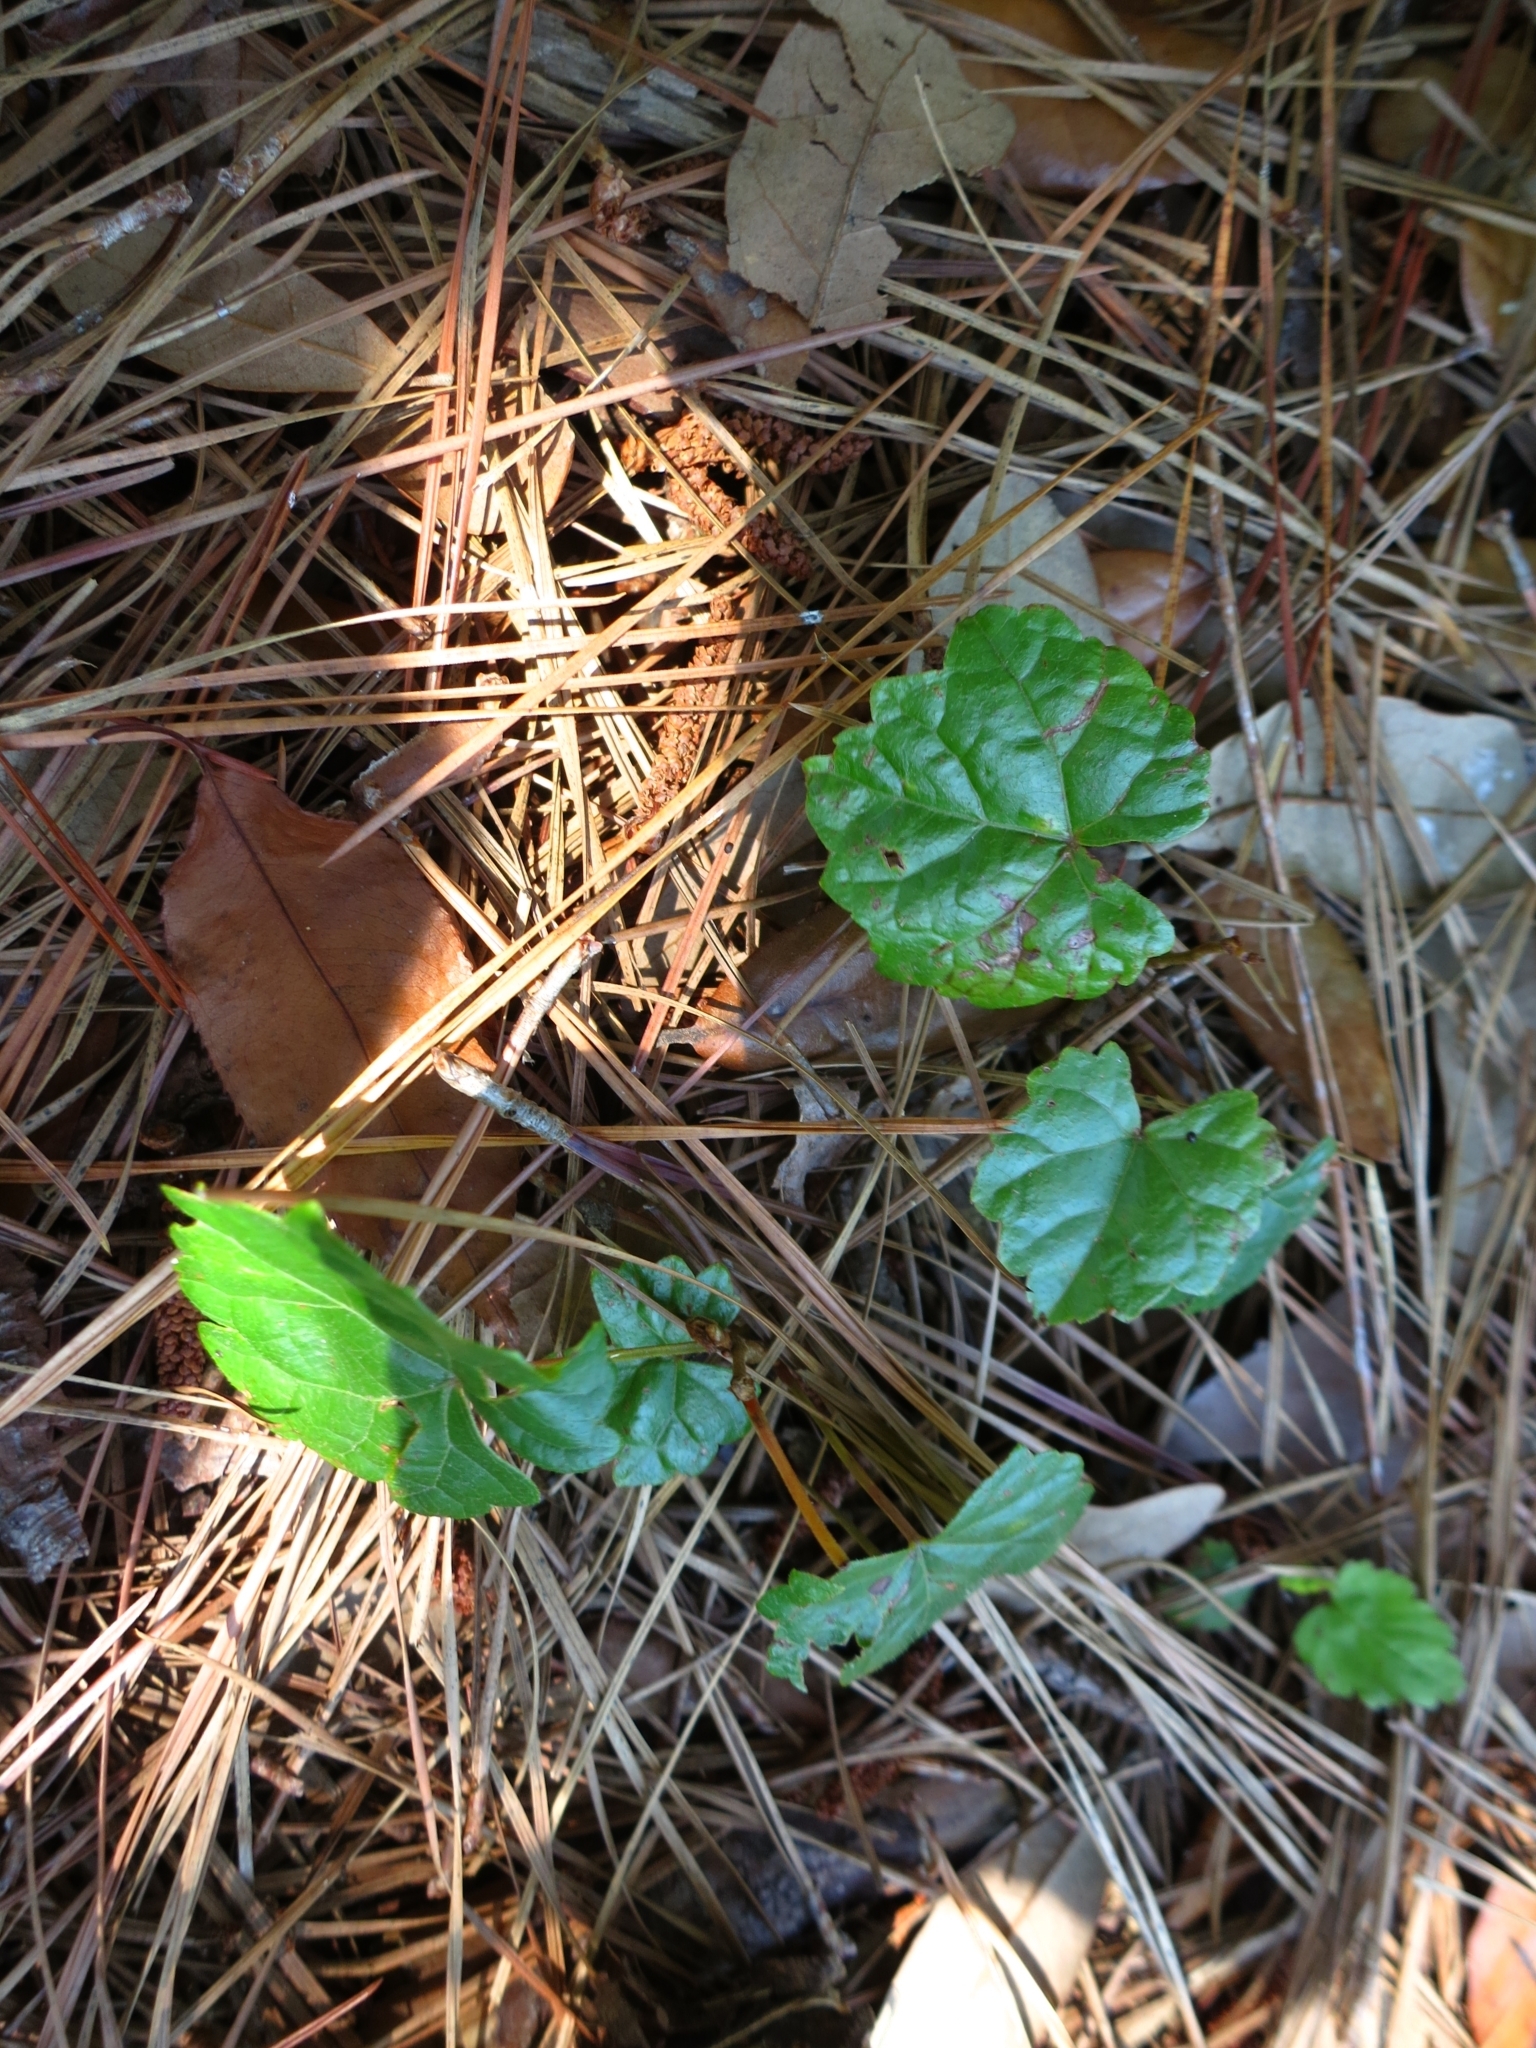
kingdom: Plantae
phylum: Tracheophyta
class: Magnoliopsida
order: Vitales
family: Vitaceae
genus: Vitis
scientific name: Vitis rotundifolia
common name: Muscadine grape
